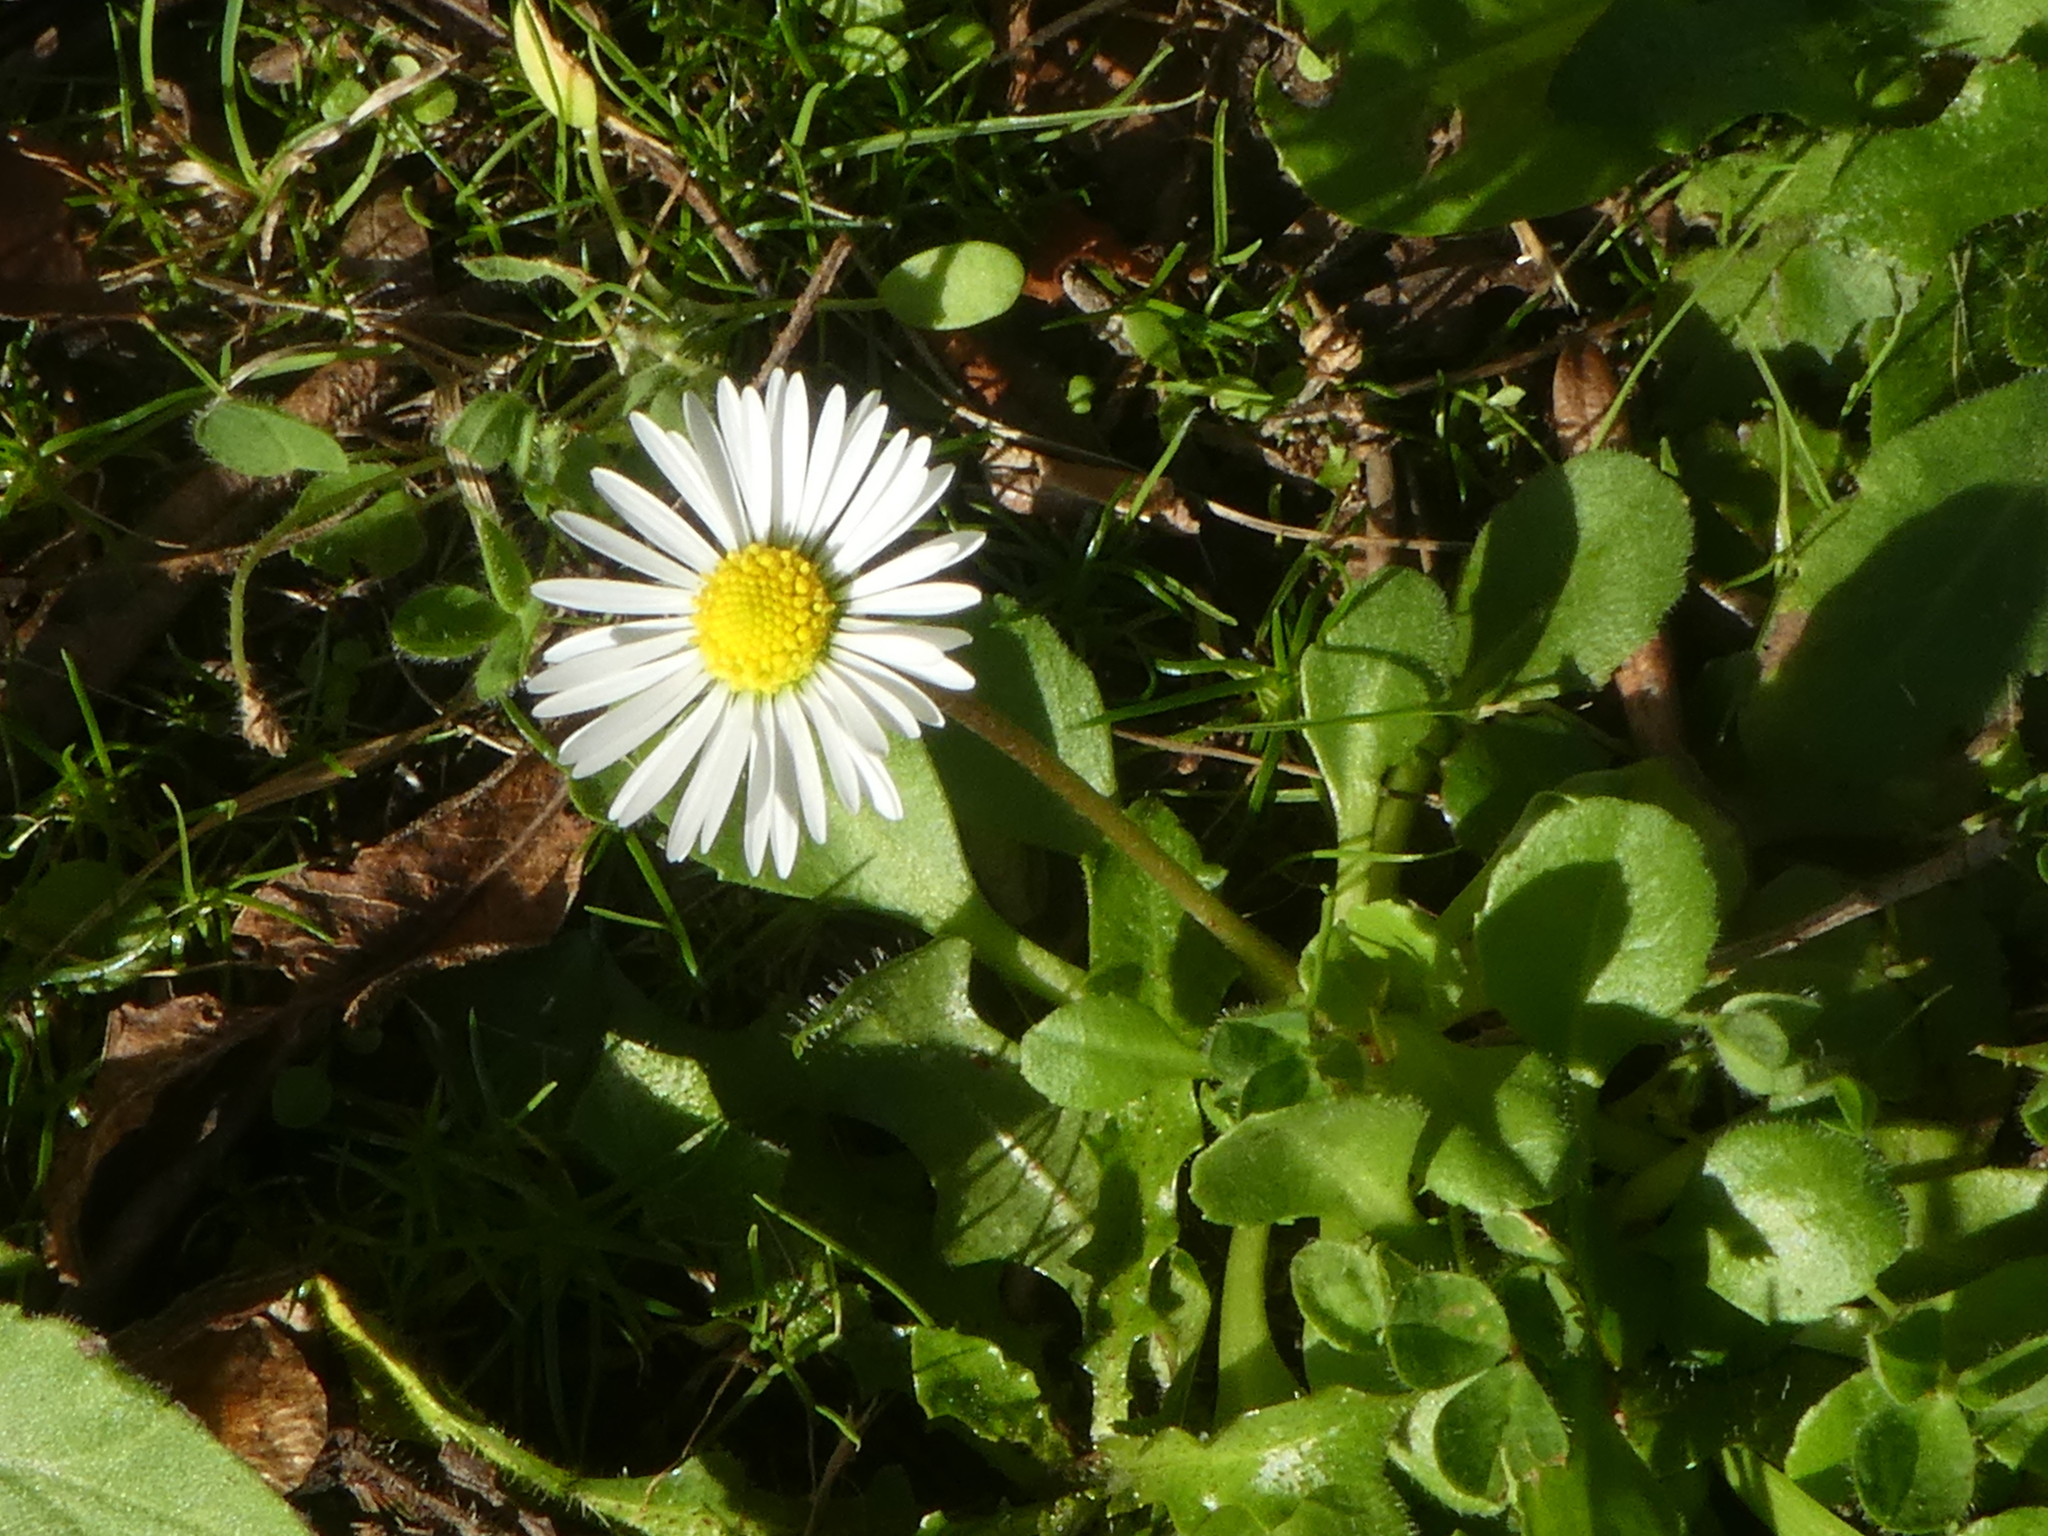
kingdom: Plantae
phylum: Tracheophyta
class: Magnoliopsida
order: Asterales
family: Asteraceae
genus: Bellis
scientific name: Bellis perennis
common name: Lawndaisy
